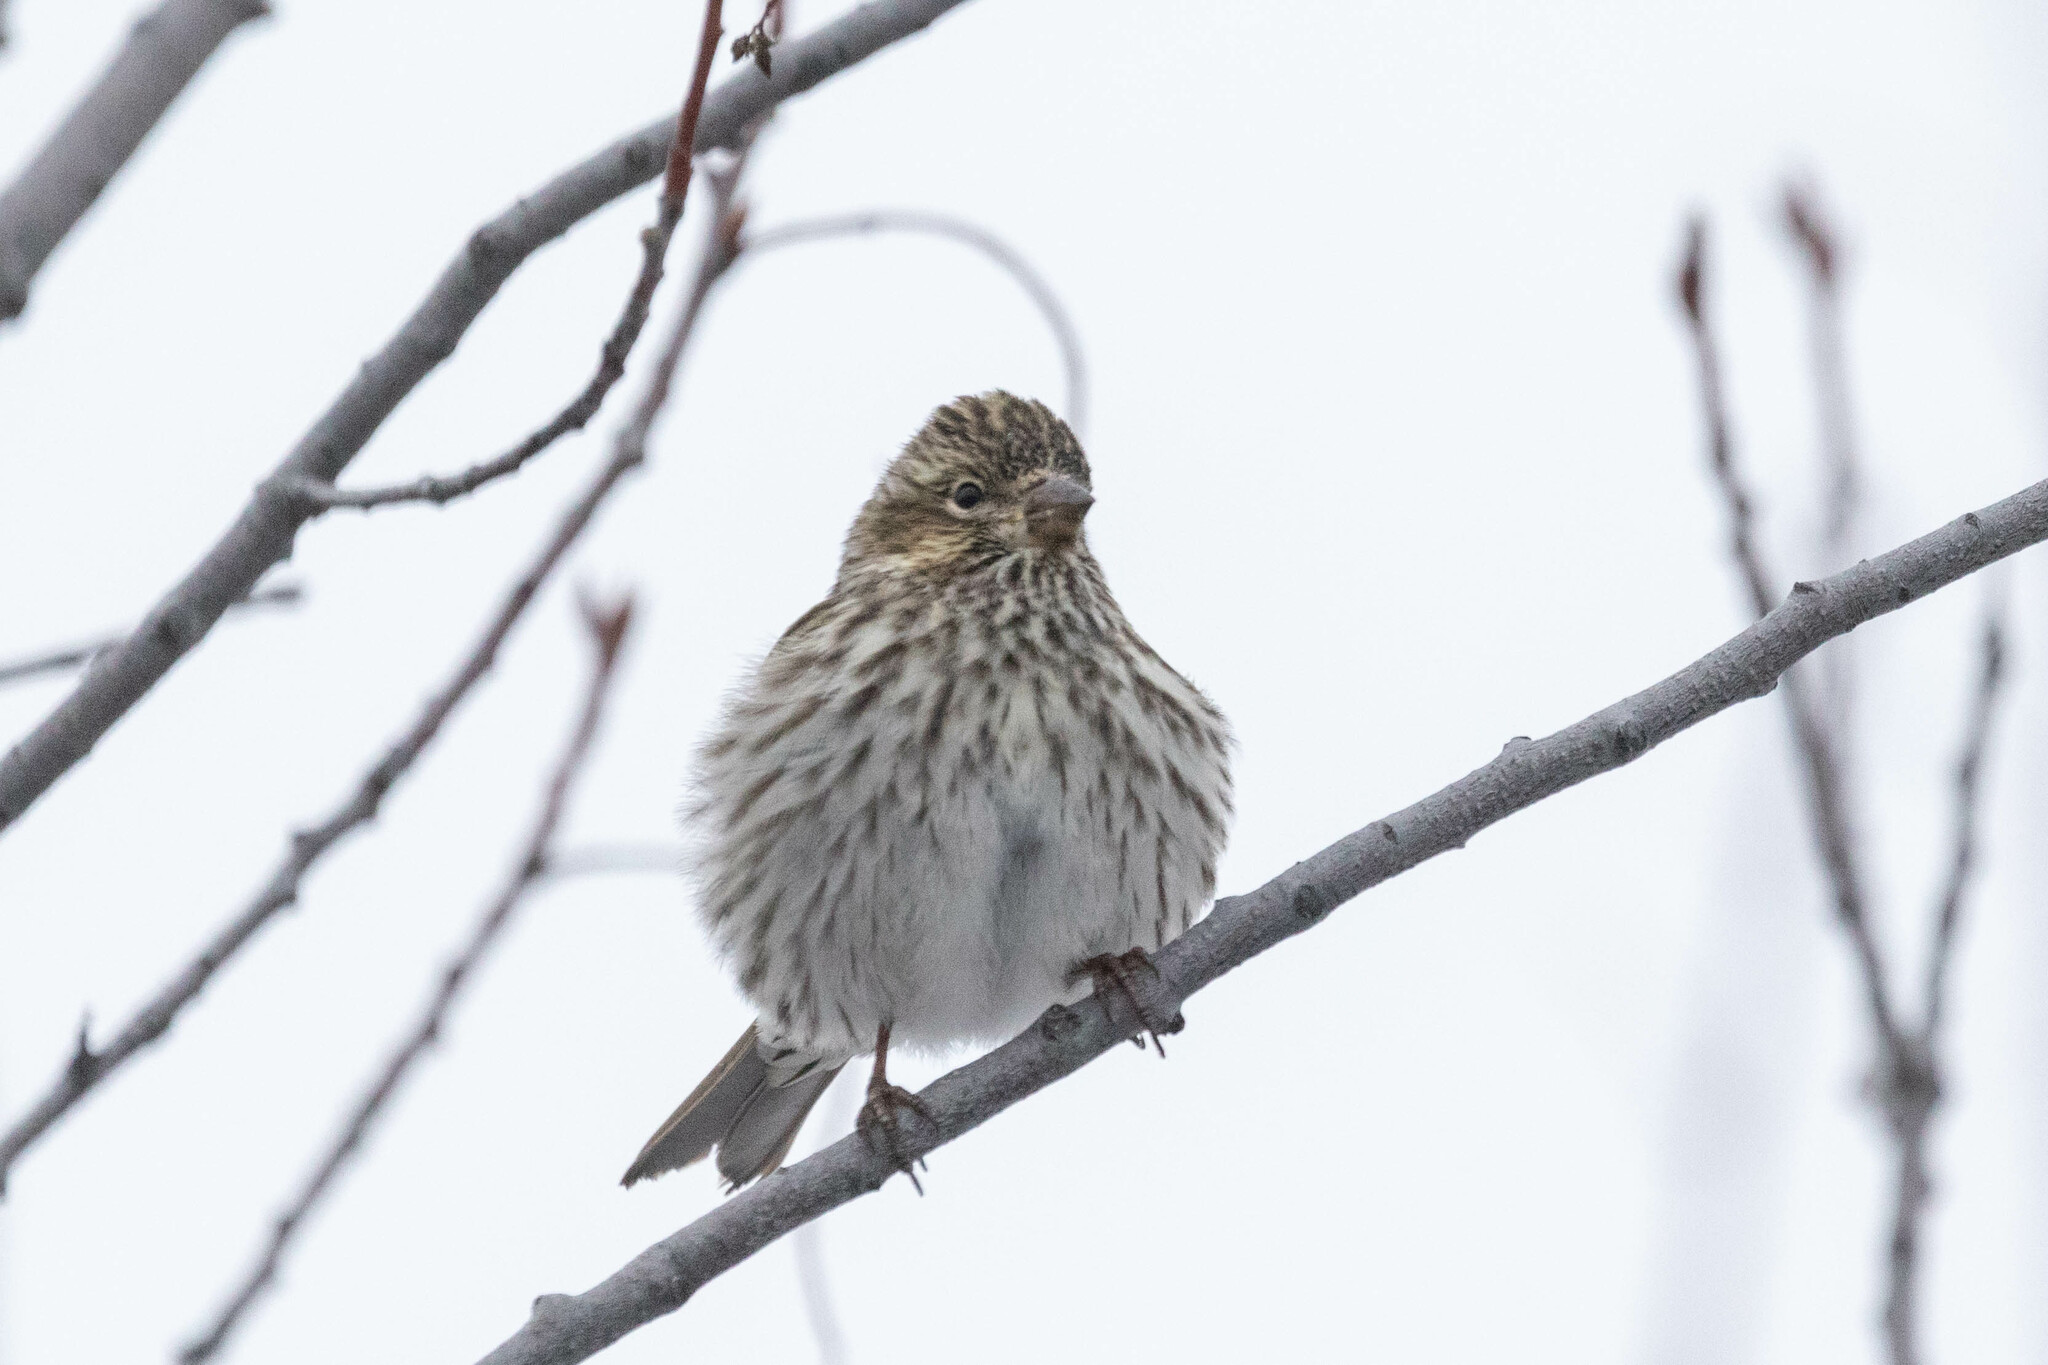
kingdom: Animalia
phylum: Chordata
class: Aves
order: Passeriformes
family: Fringillidae
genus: Haemorhous
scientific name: Haemorhous cassinii
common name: Cassin's finch
